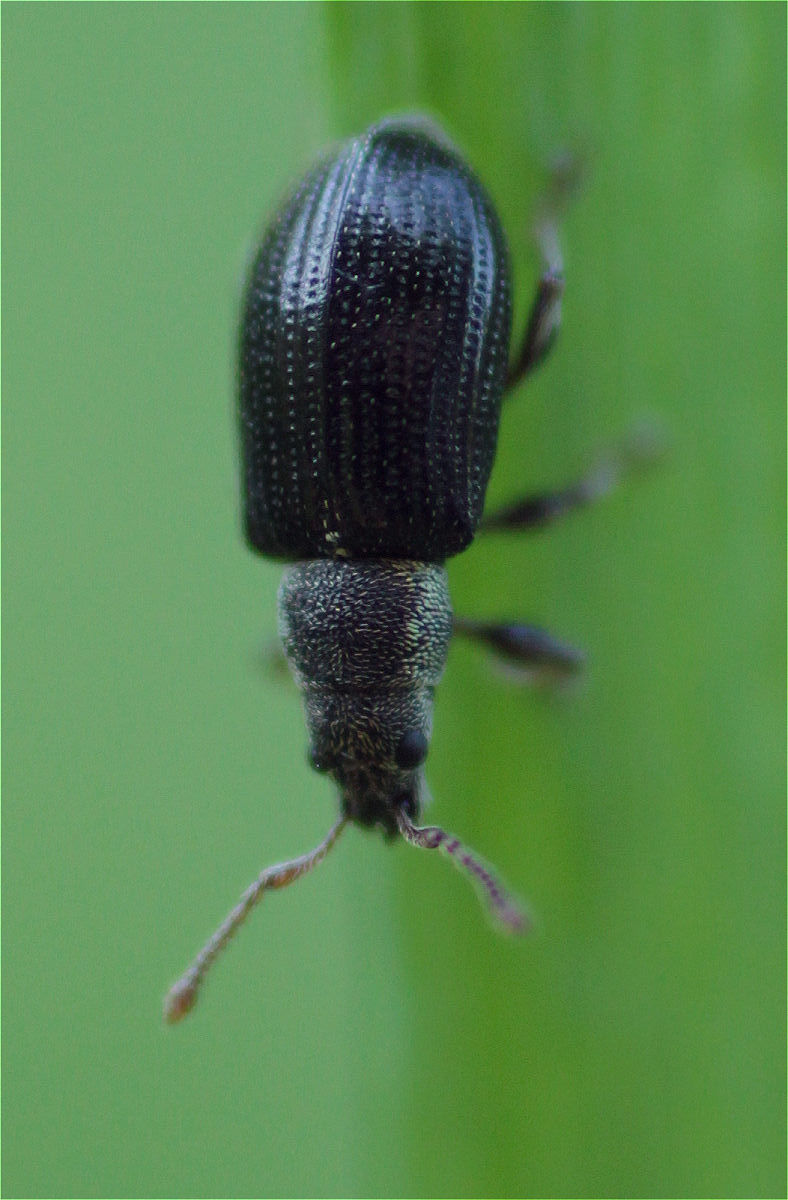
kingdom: Animalia
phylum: Arthropoda
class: Insecta
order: Coleoptera
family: Curculionidae
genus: Phyllobius
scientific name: Phyllobius viridicollis
